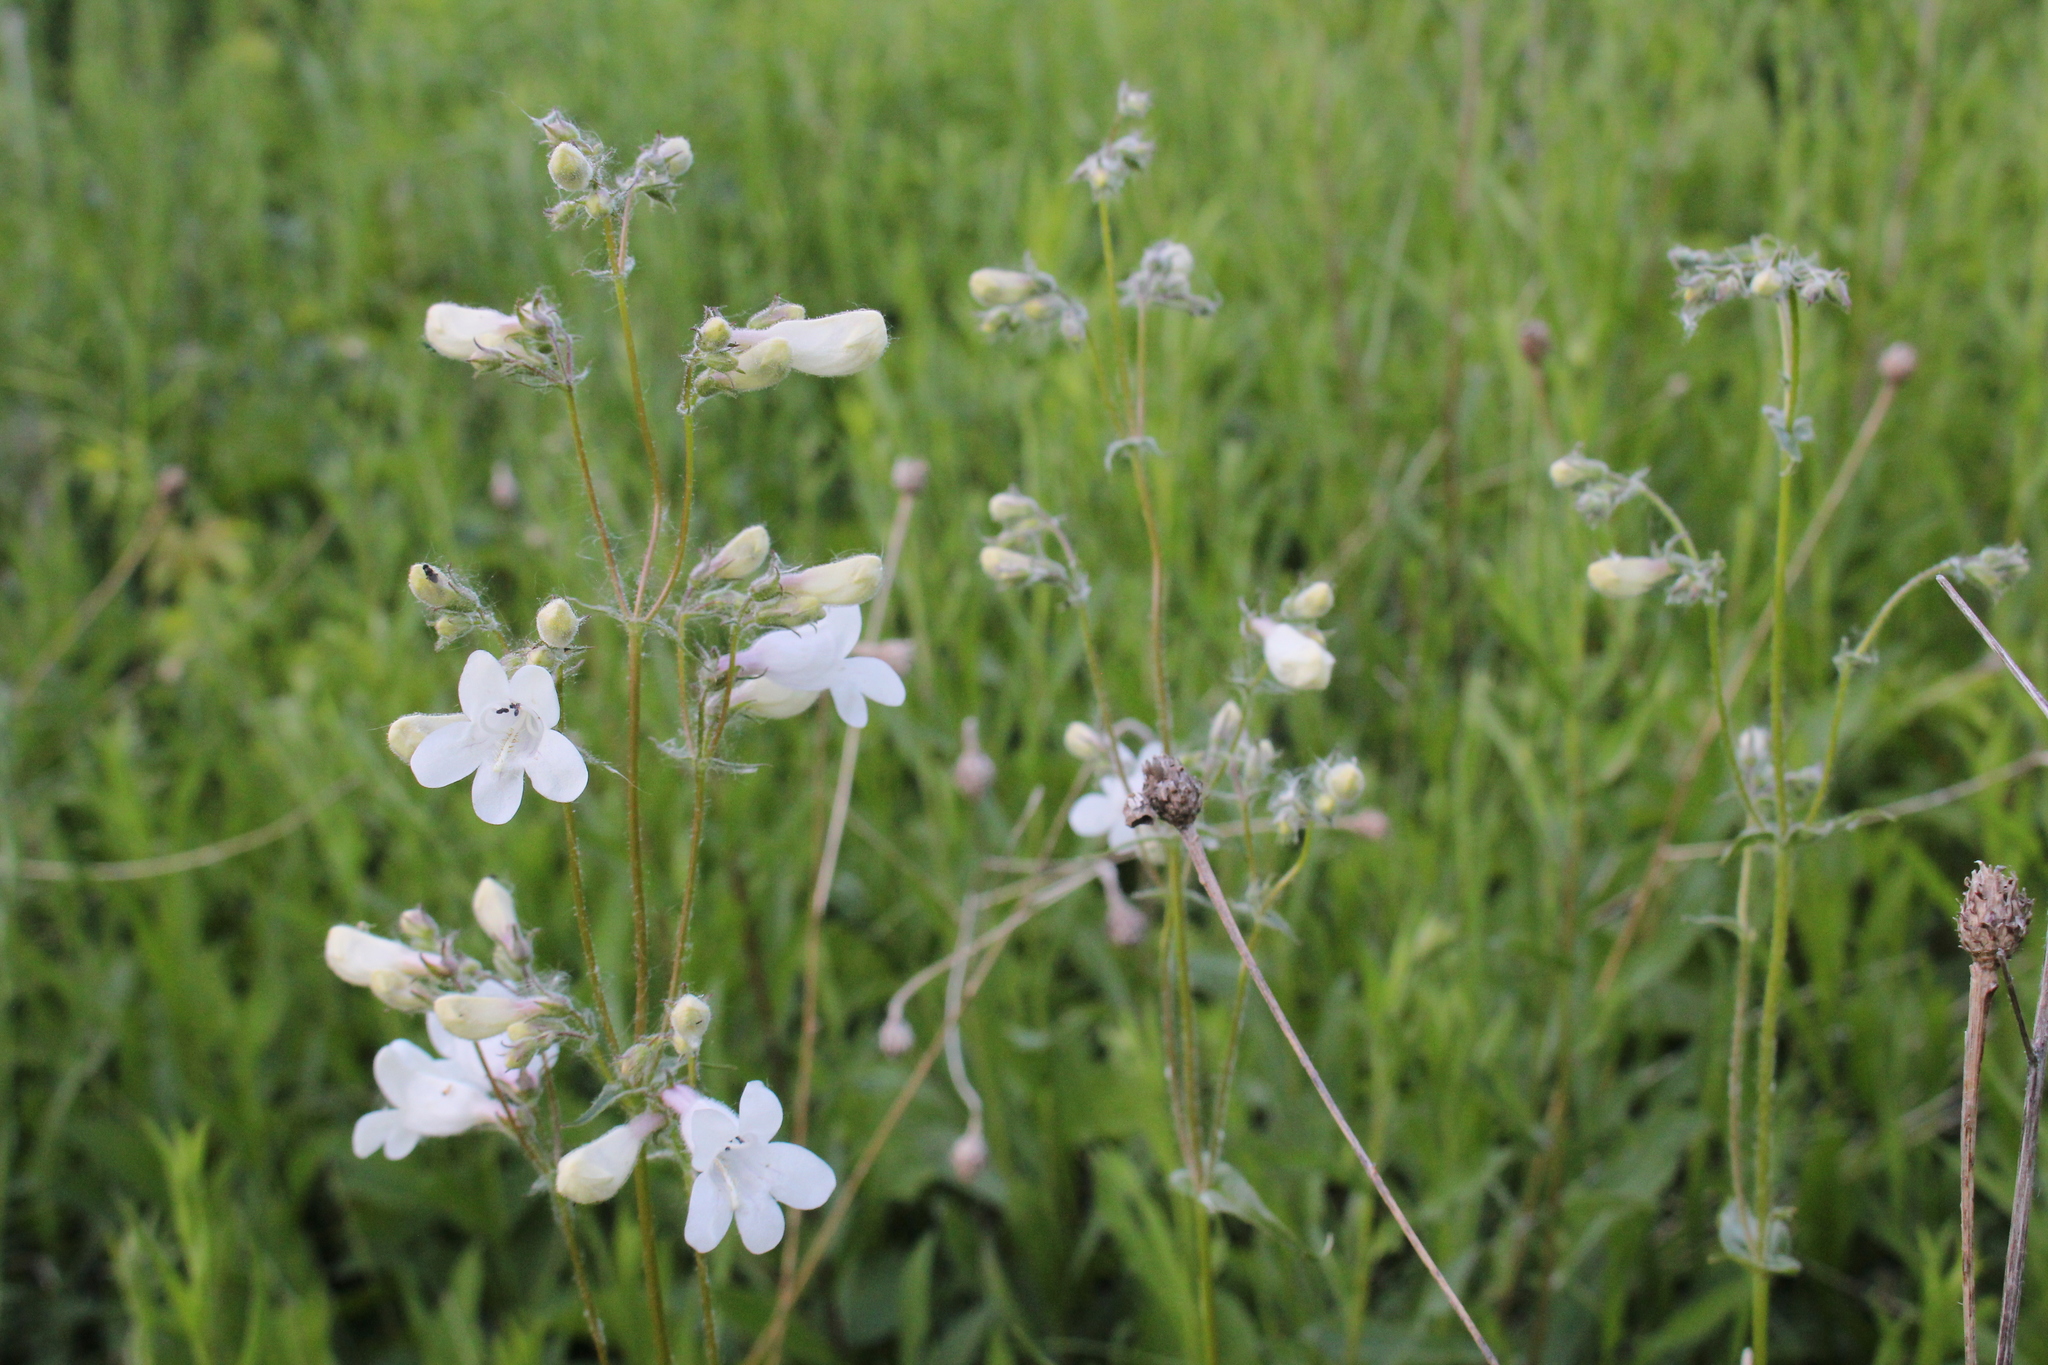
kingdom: Plantae
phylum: Tracheophyta
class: Magnoliopsida
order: Lamiales
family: Plantaginaceae
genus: Penstemon
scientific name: Penstemon digitalis
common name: Foxglove beardtongue
